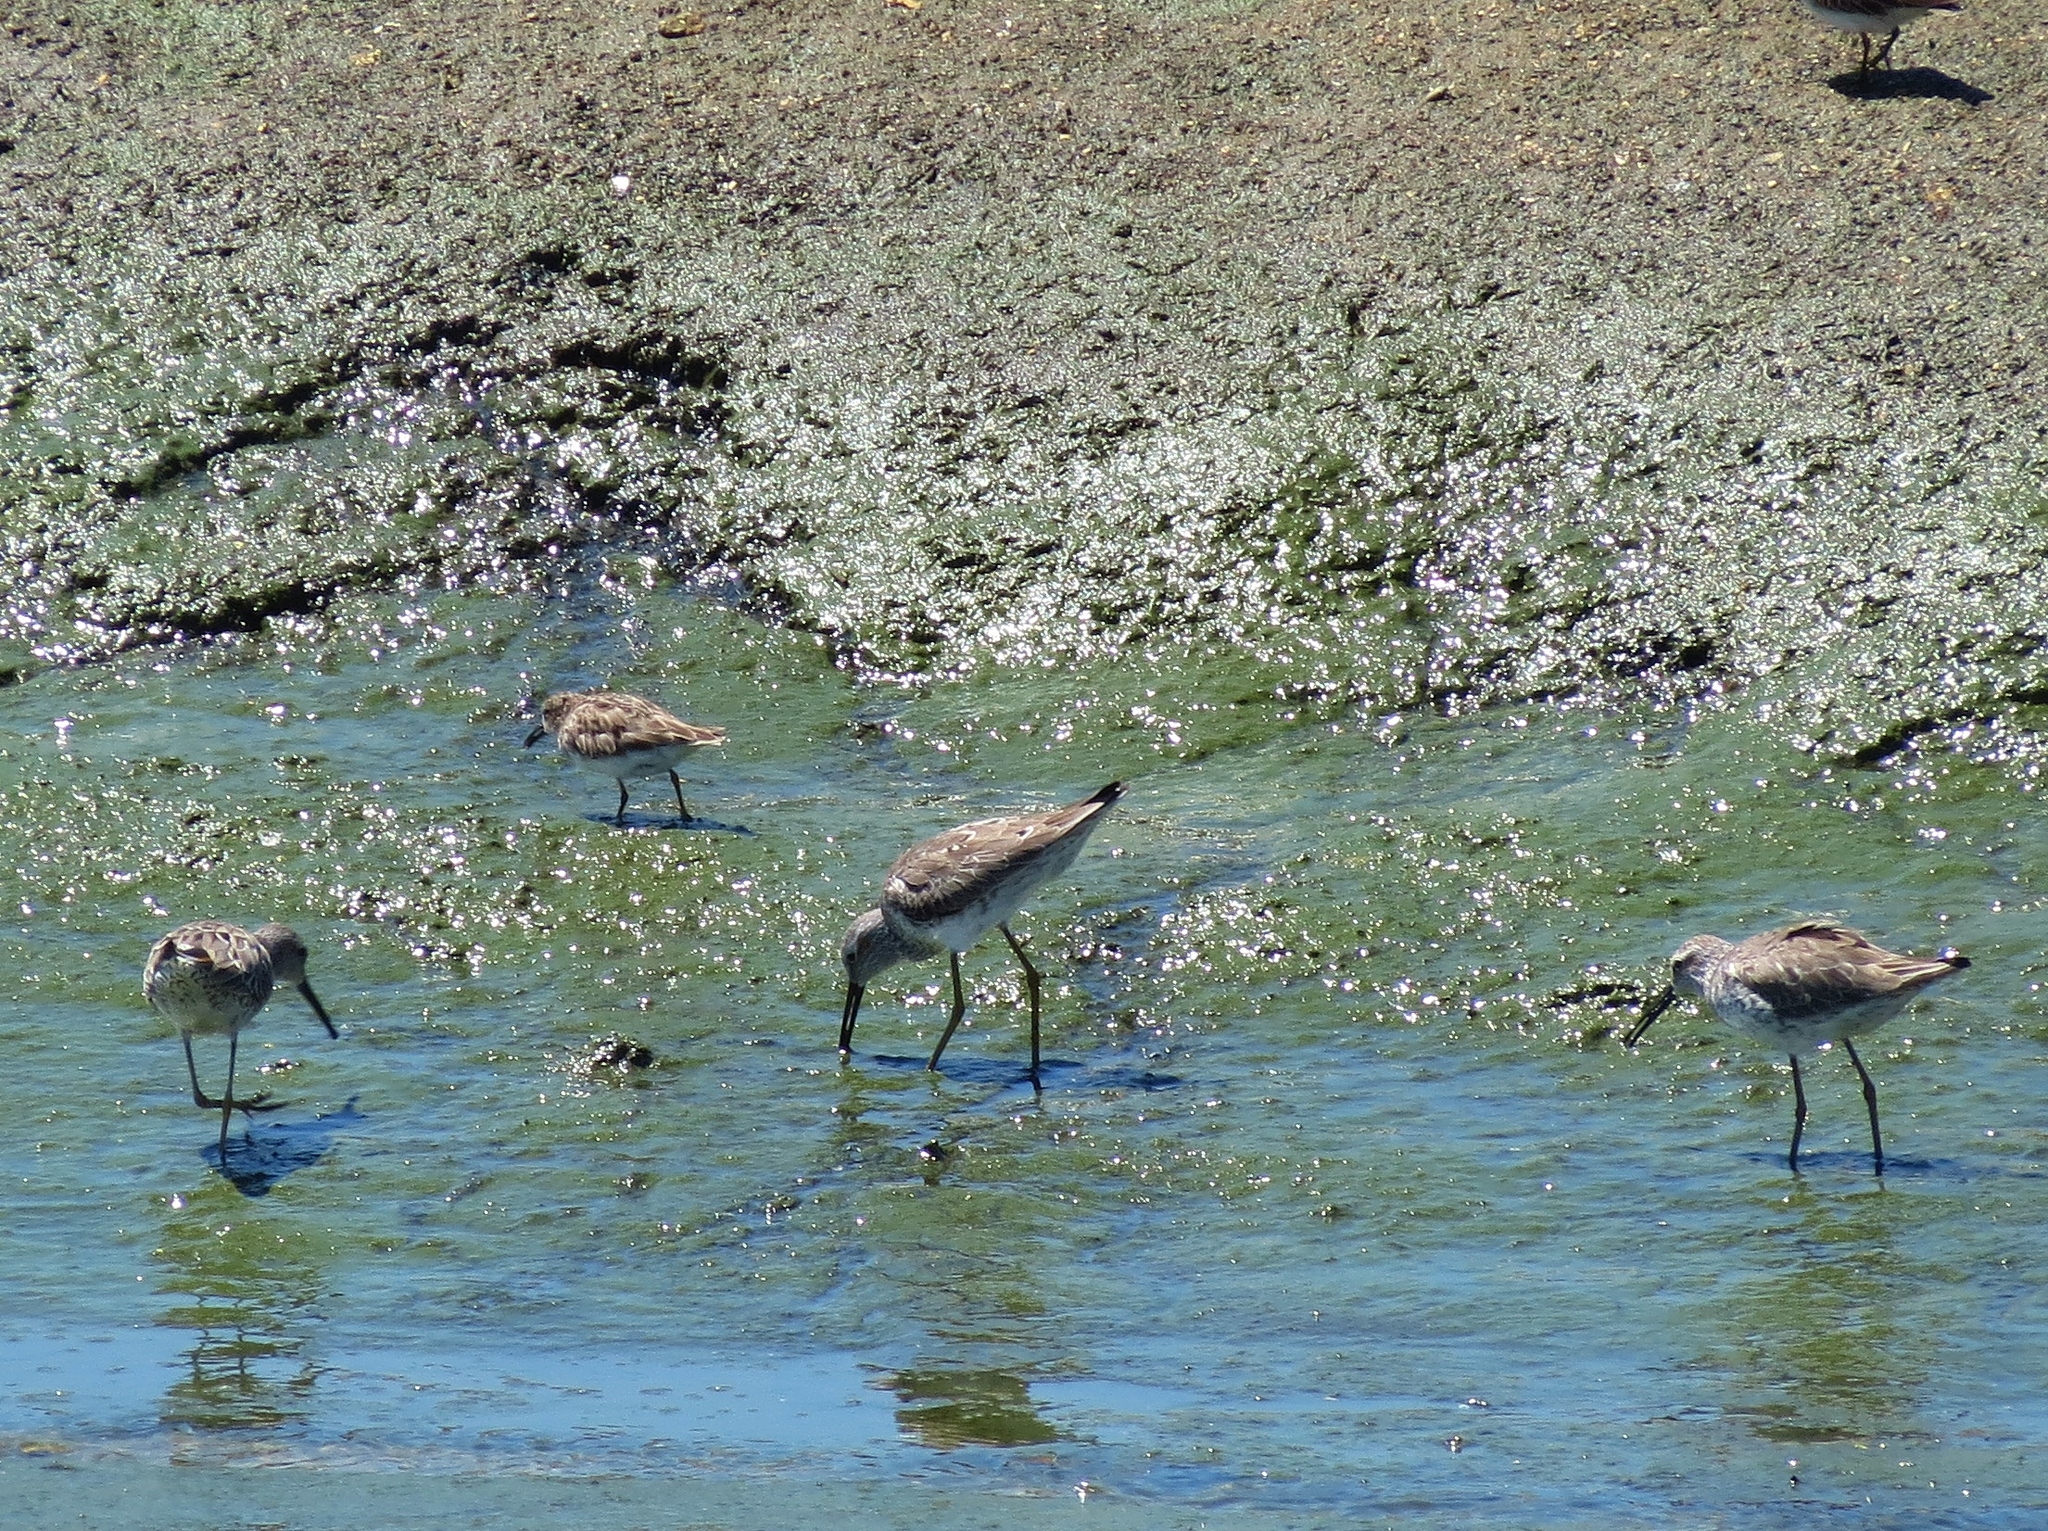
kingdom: Animalia
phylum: Chordata
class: Aves
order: Charadriiformes
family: Scolopacidae
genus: Calidris
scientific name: Calidris himantopus
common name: Stilt sandpiper
